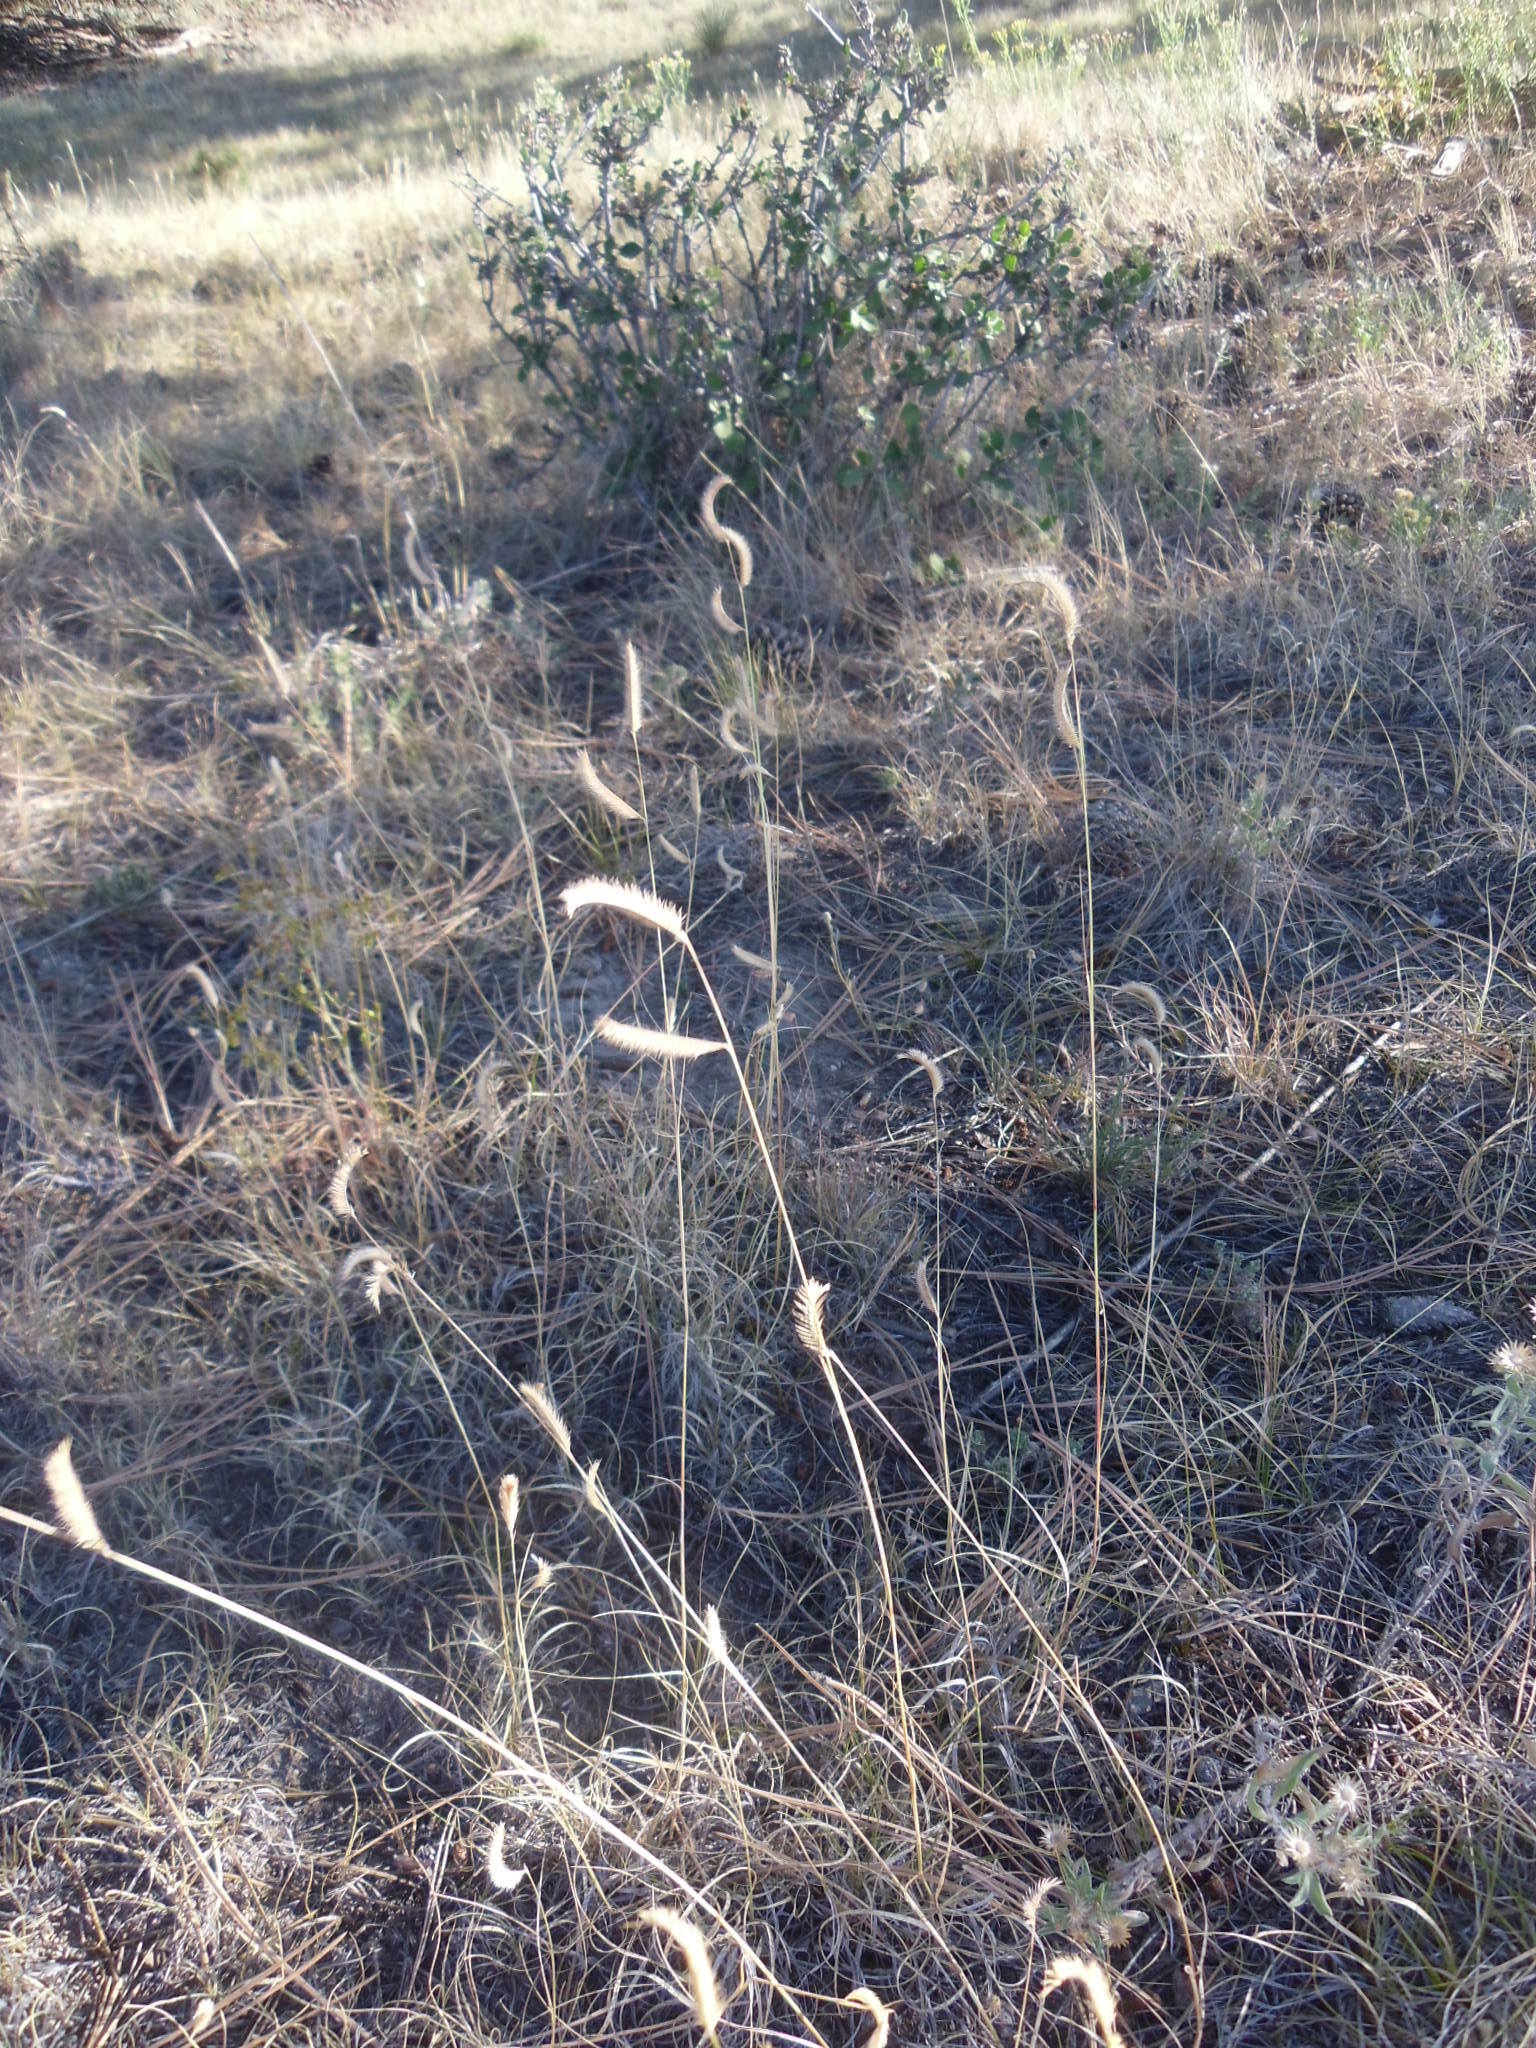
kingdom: Plantae
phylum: Tracheophyta
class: Liliopsida
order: Poales
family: Poaceae
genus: Bouteloua
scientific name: Bouteloua gracilis
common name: Blue grama
